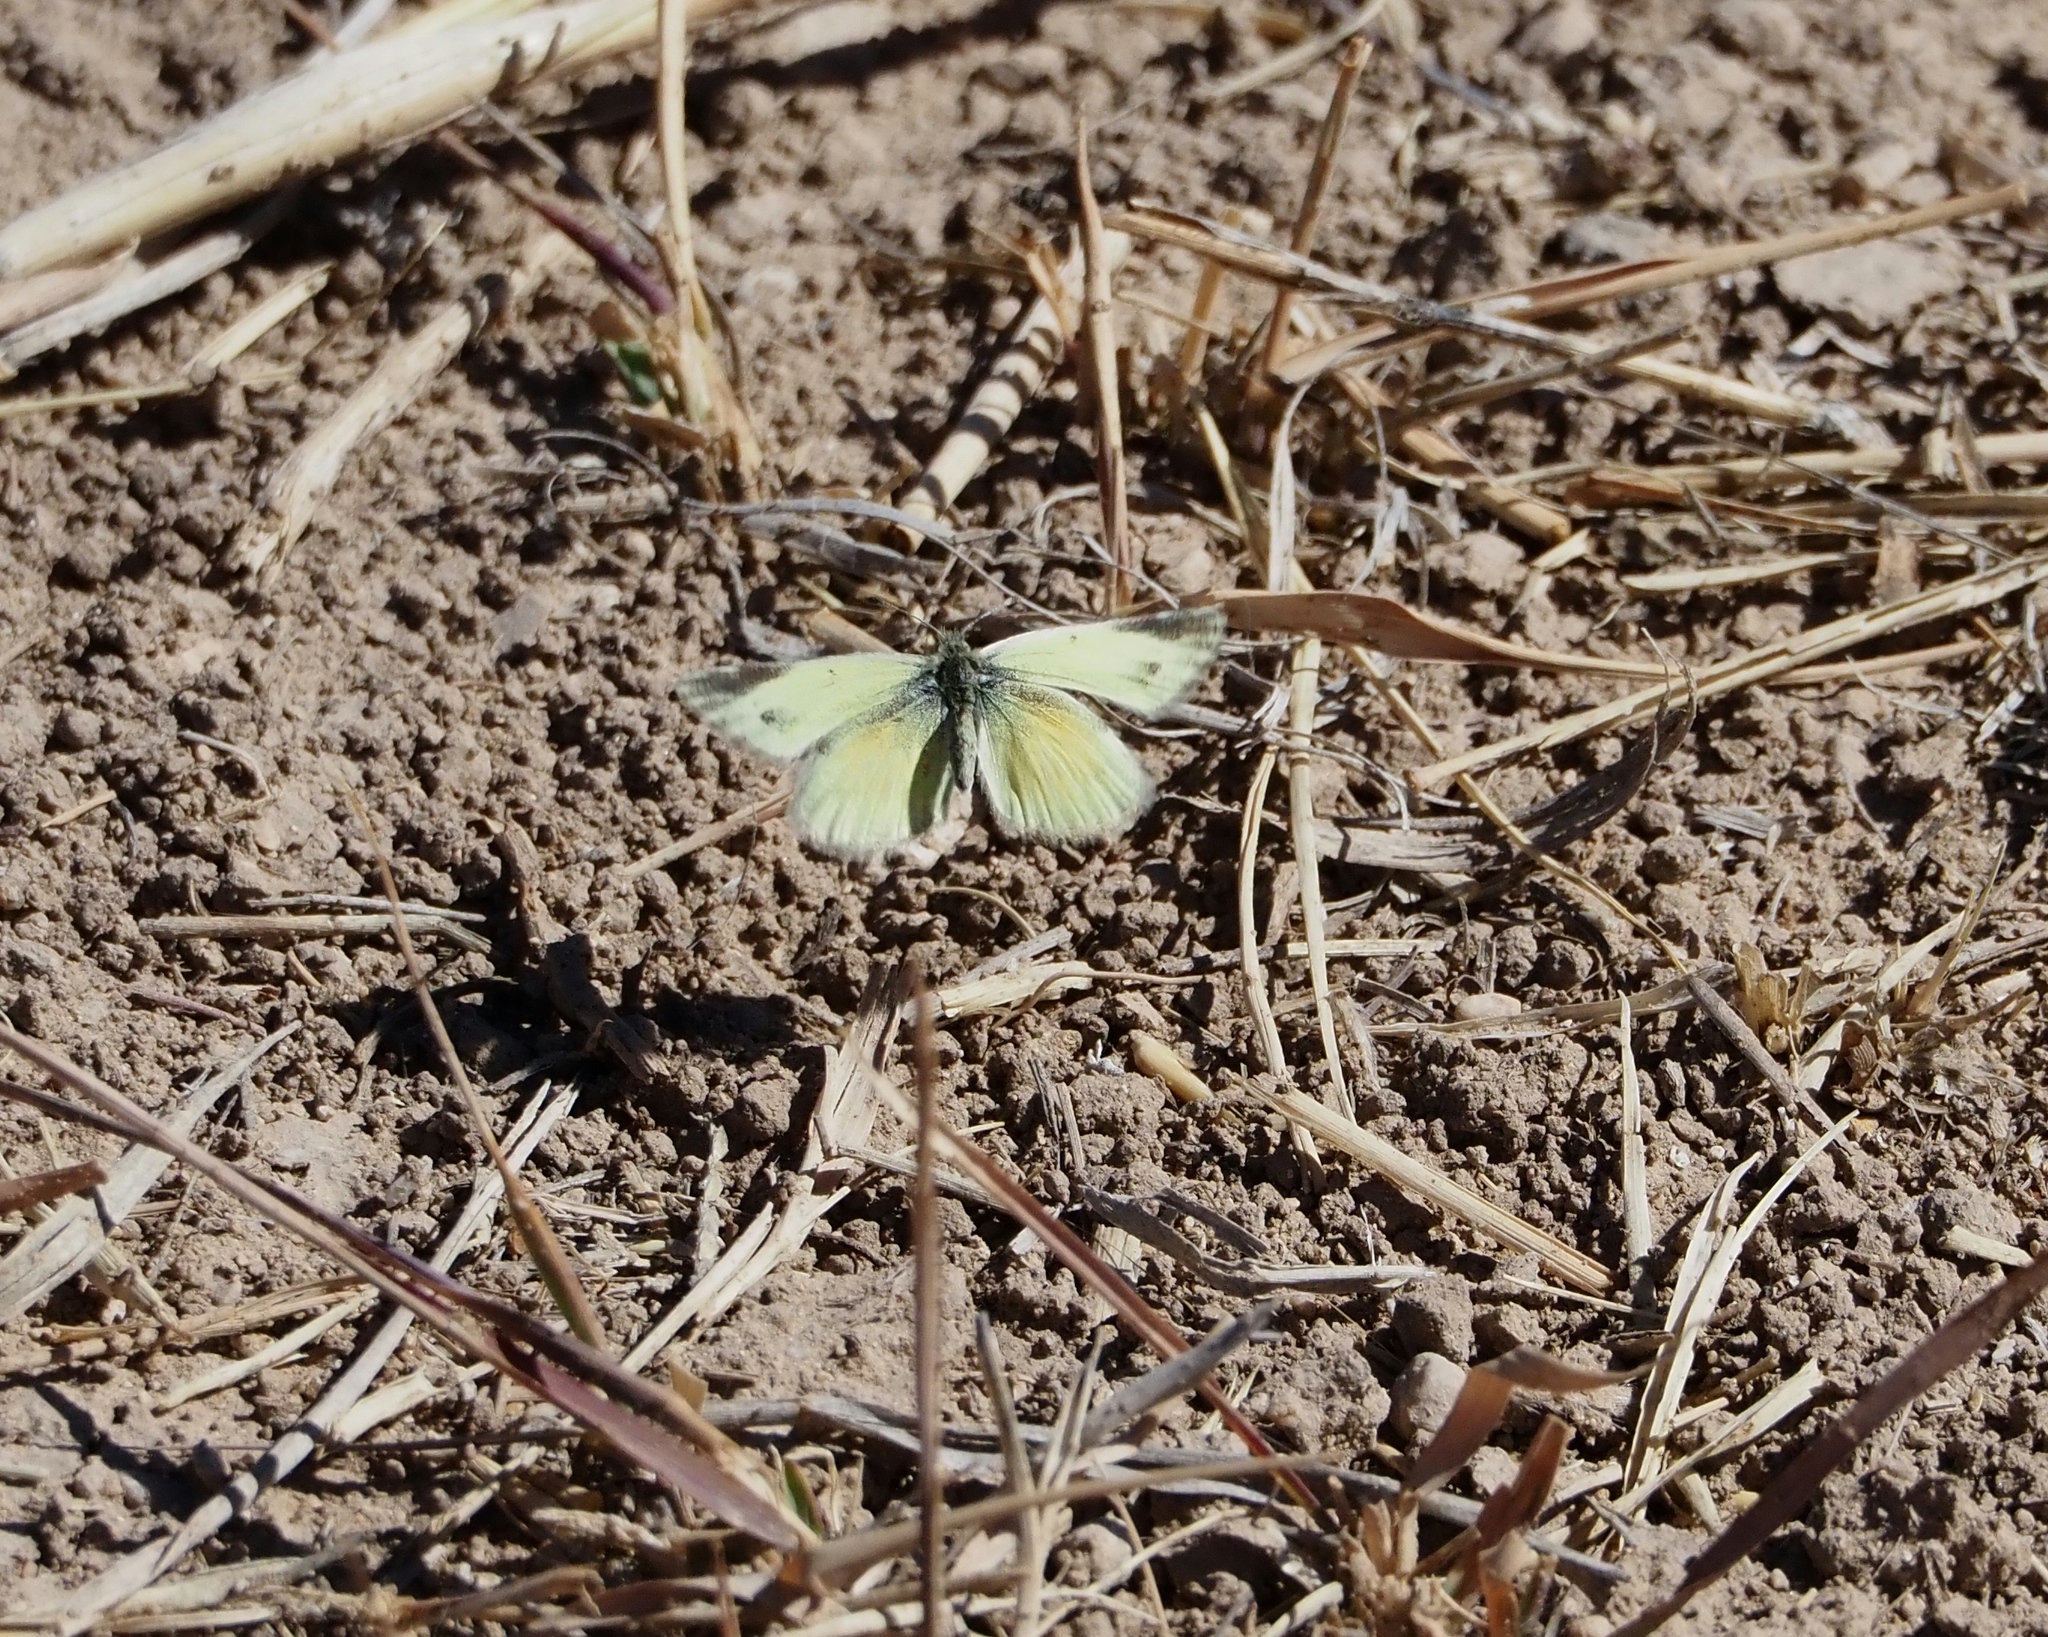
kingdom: Animalia
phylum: Arthropoda
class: Insecta
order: Lepidoptera
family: Pieridae
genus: Nathalis
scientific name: Nathalis iole
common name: Dainty sulphur
